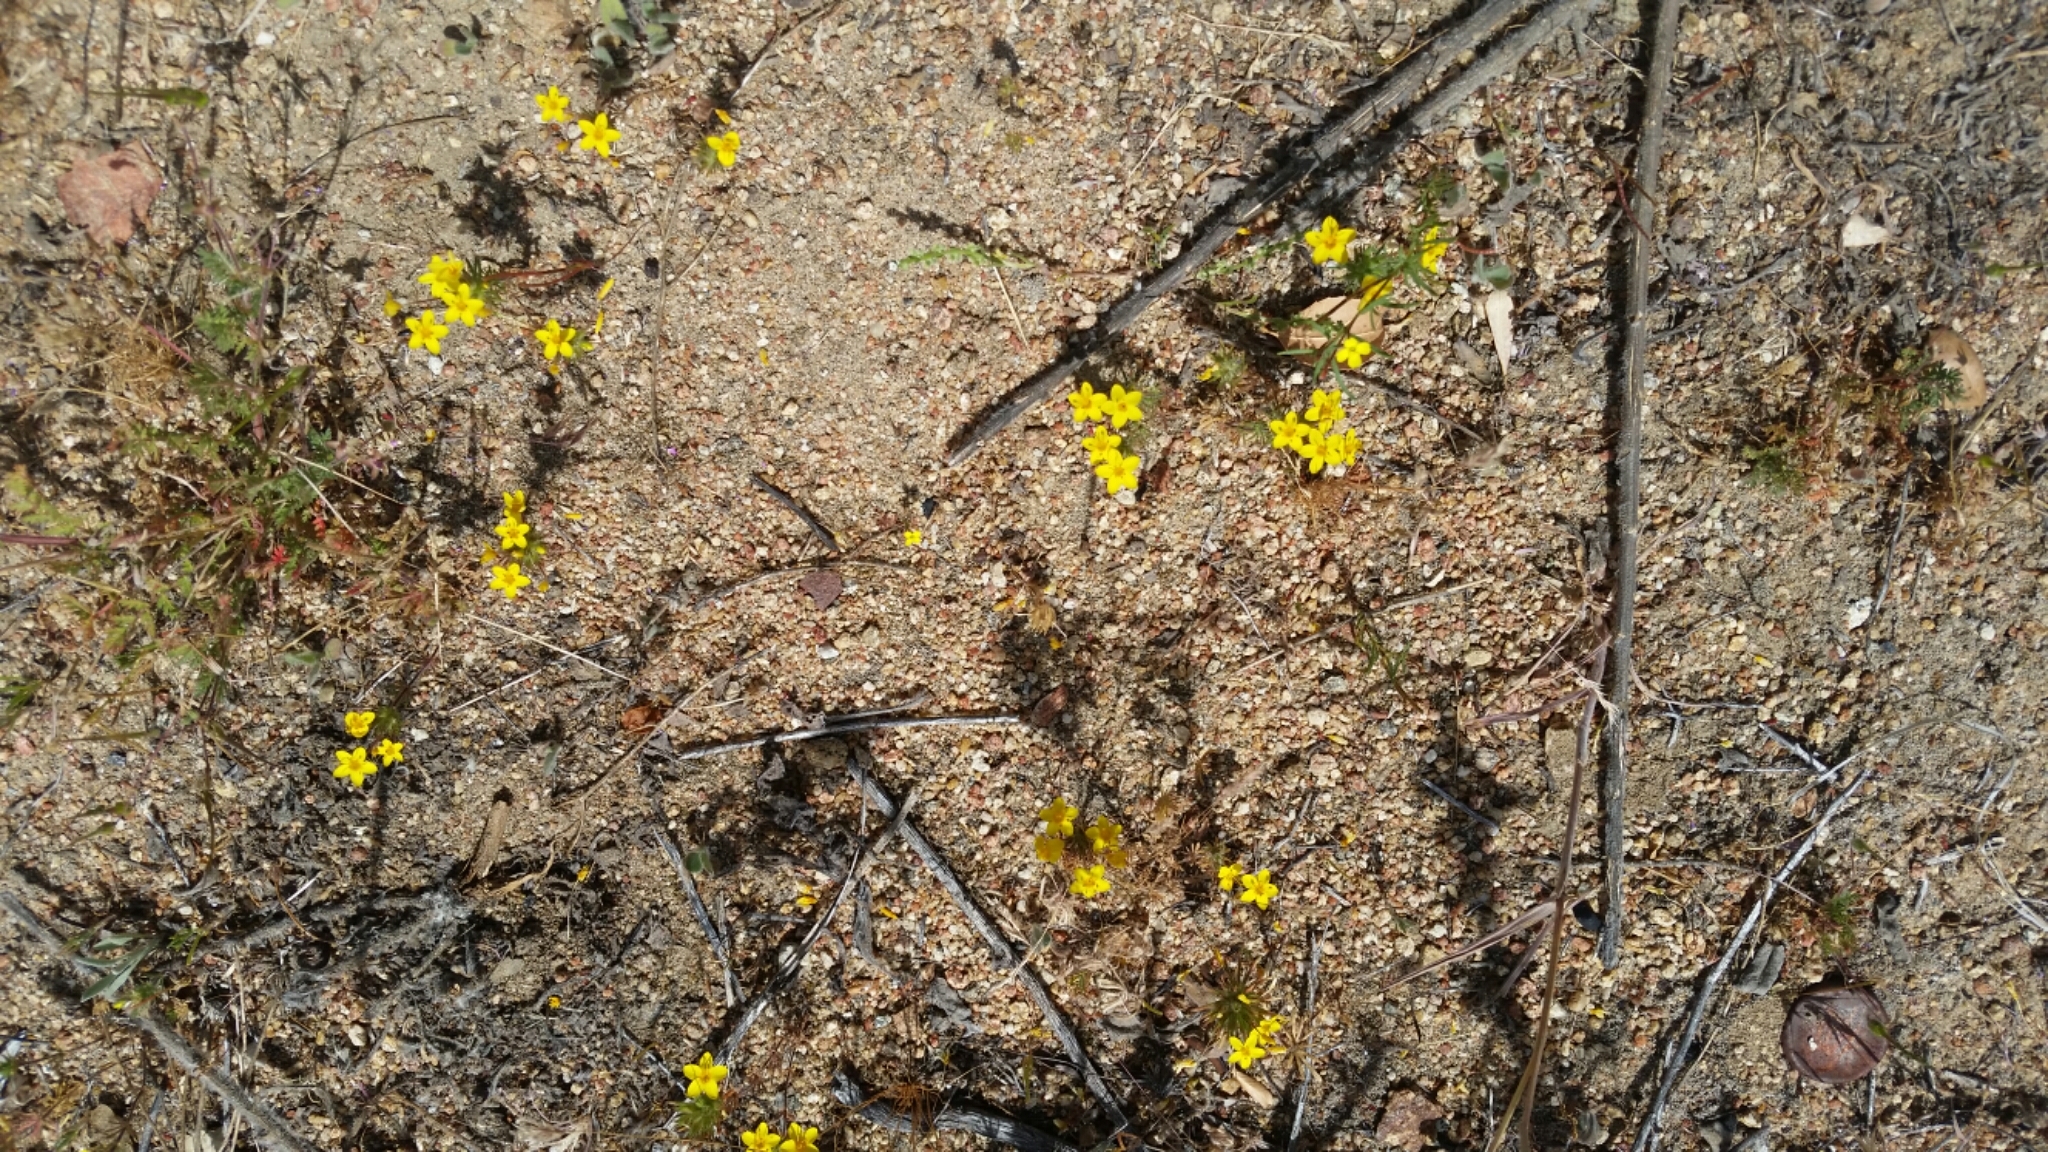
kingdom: Plantae
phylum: Tracheophyta
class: Magnoliopsida
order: Ericales
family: Polemoniaceae
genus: Leptosiphon
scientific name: Leptosiphon parviflorus
